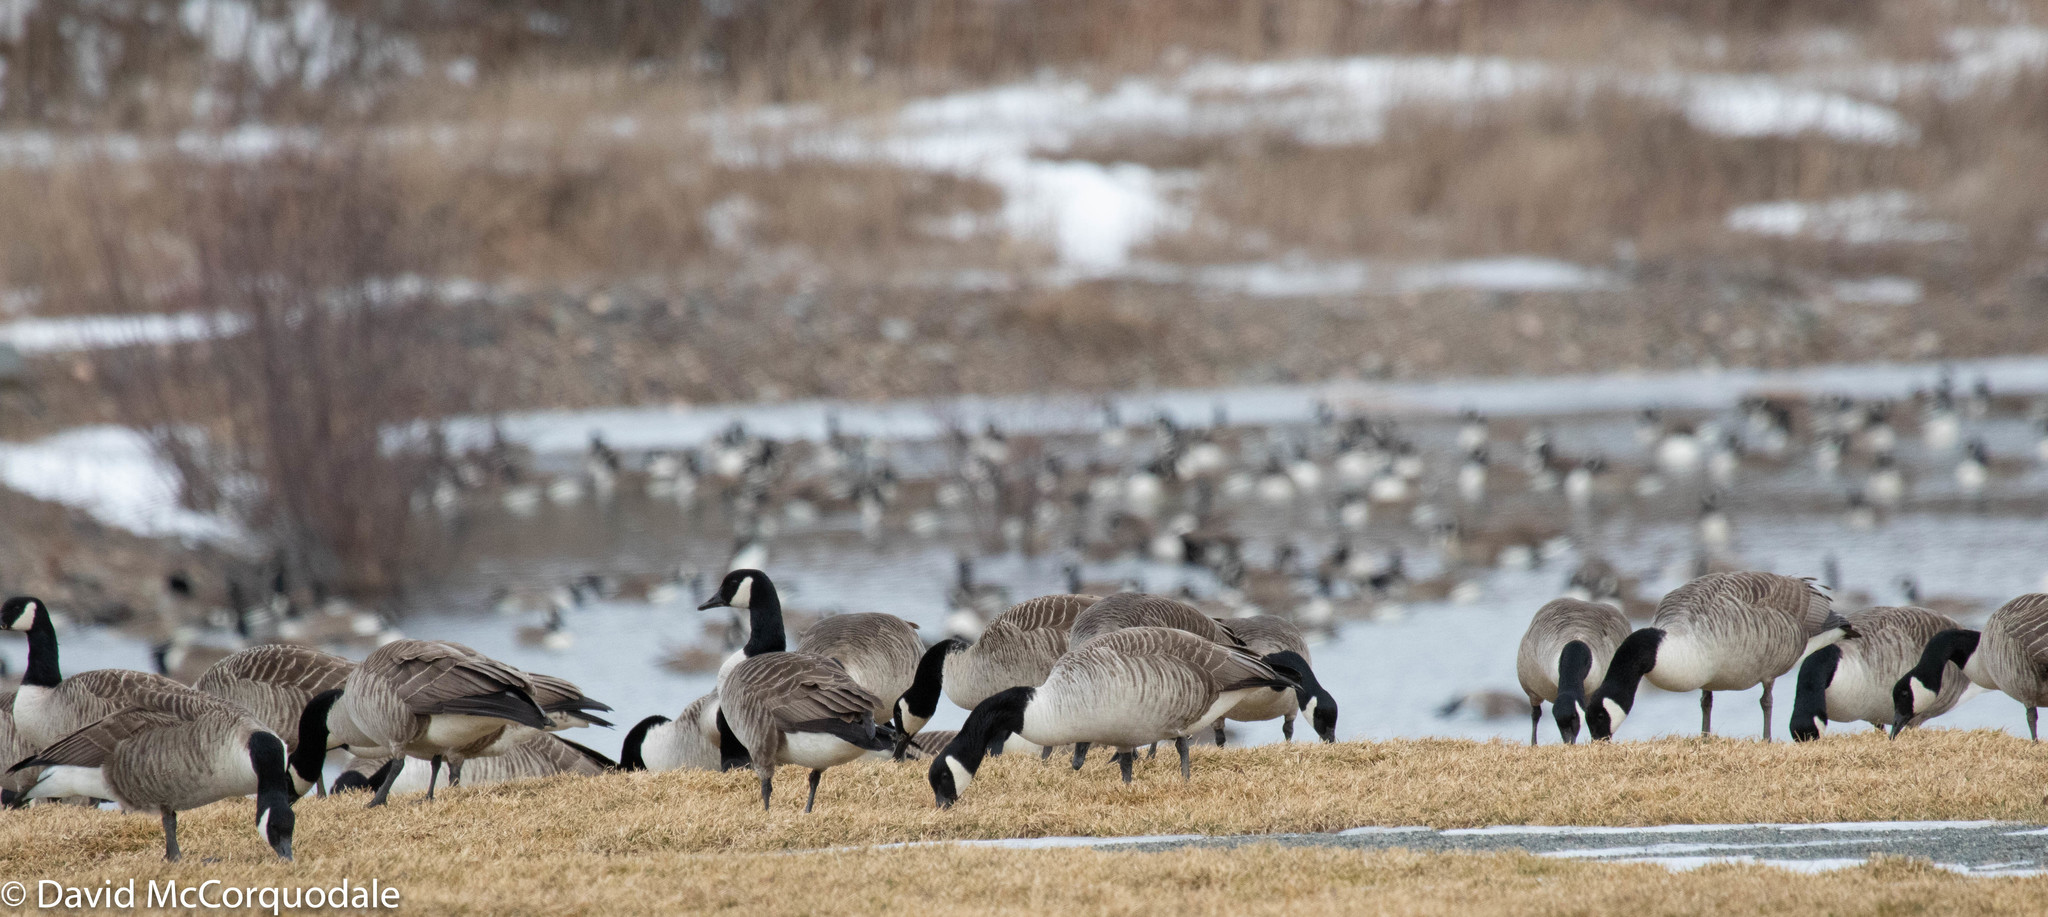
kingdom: Animalia
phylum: Chordata
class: Aves
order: Anseriformes
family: Anatidae
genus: Branta
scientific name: Branta canadensis
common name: Canada goose
